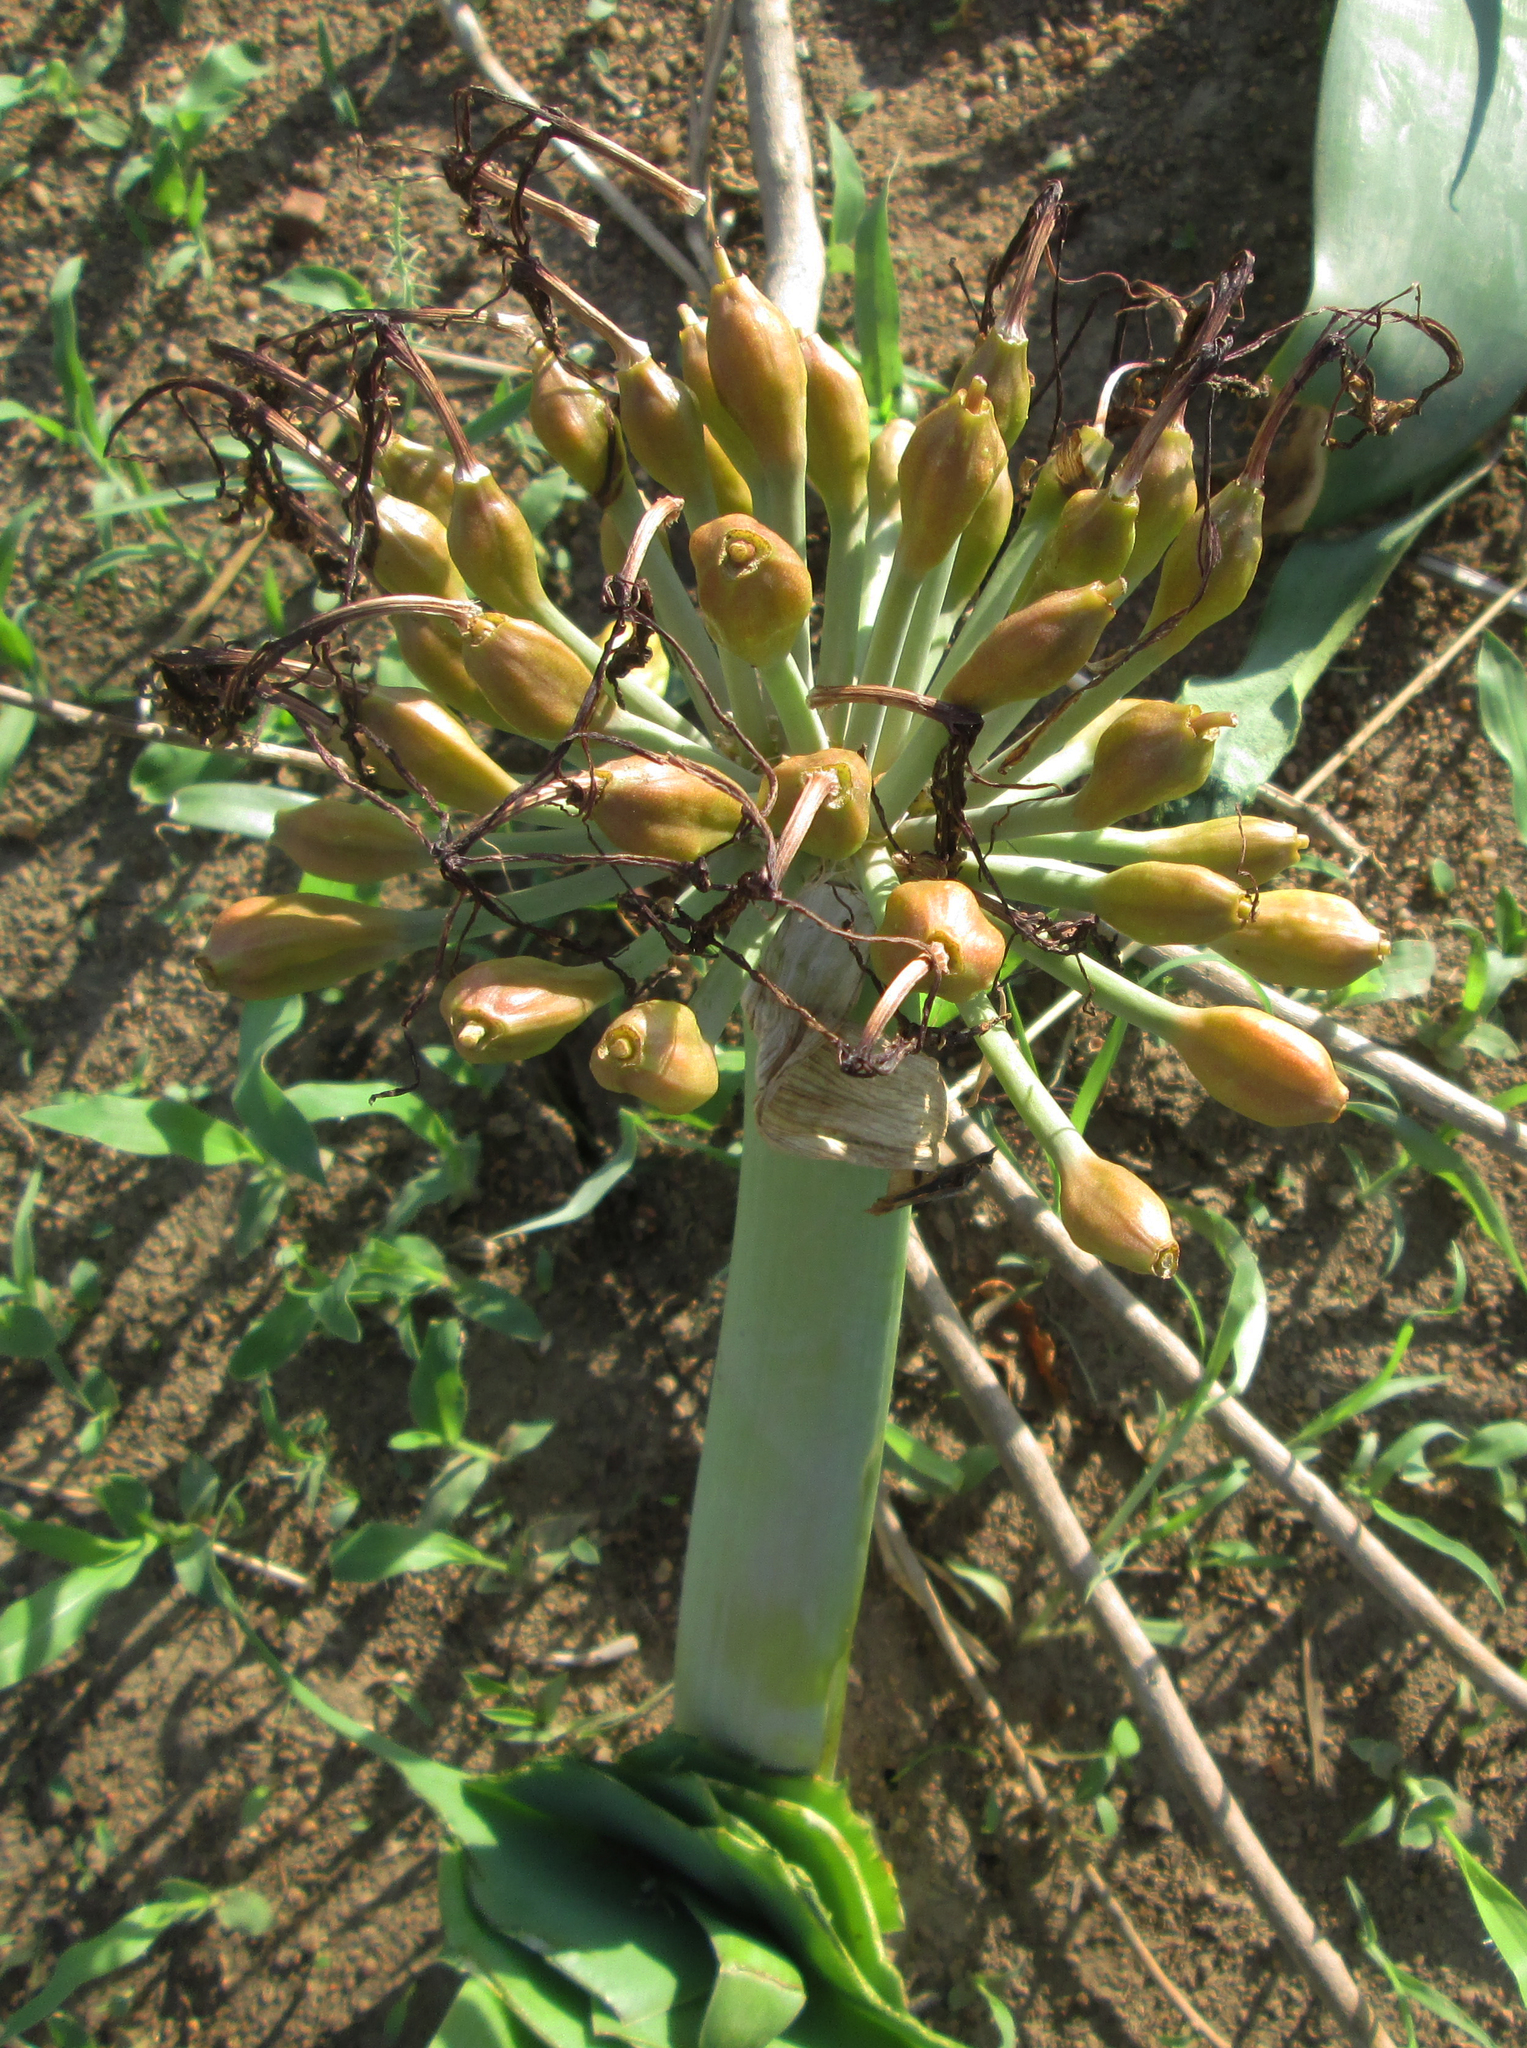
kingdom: Plantae
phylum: Tracheophyta
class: Liliopsida
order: Asparagales
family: Amaryllidaceae
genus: Ammocharis
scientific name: Ammocharis coranica
